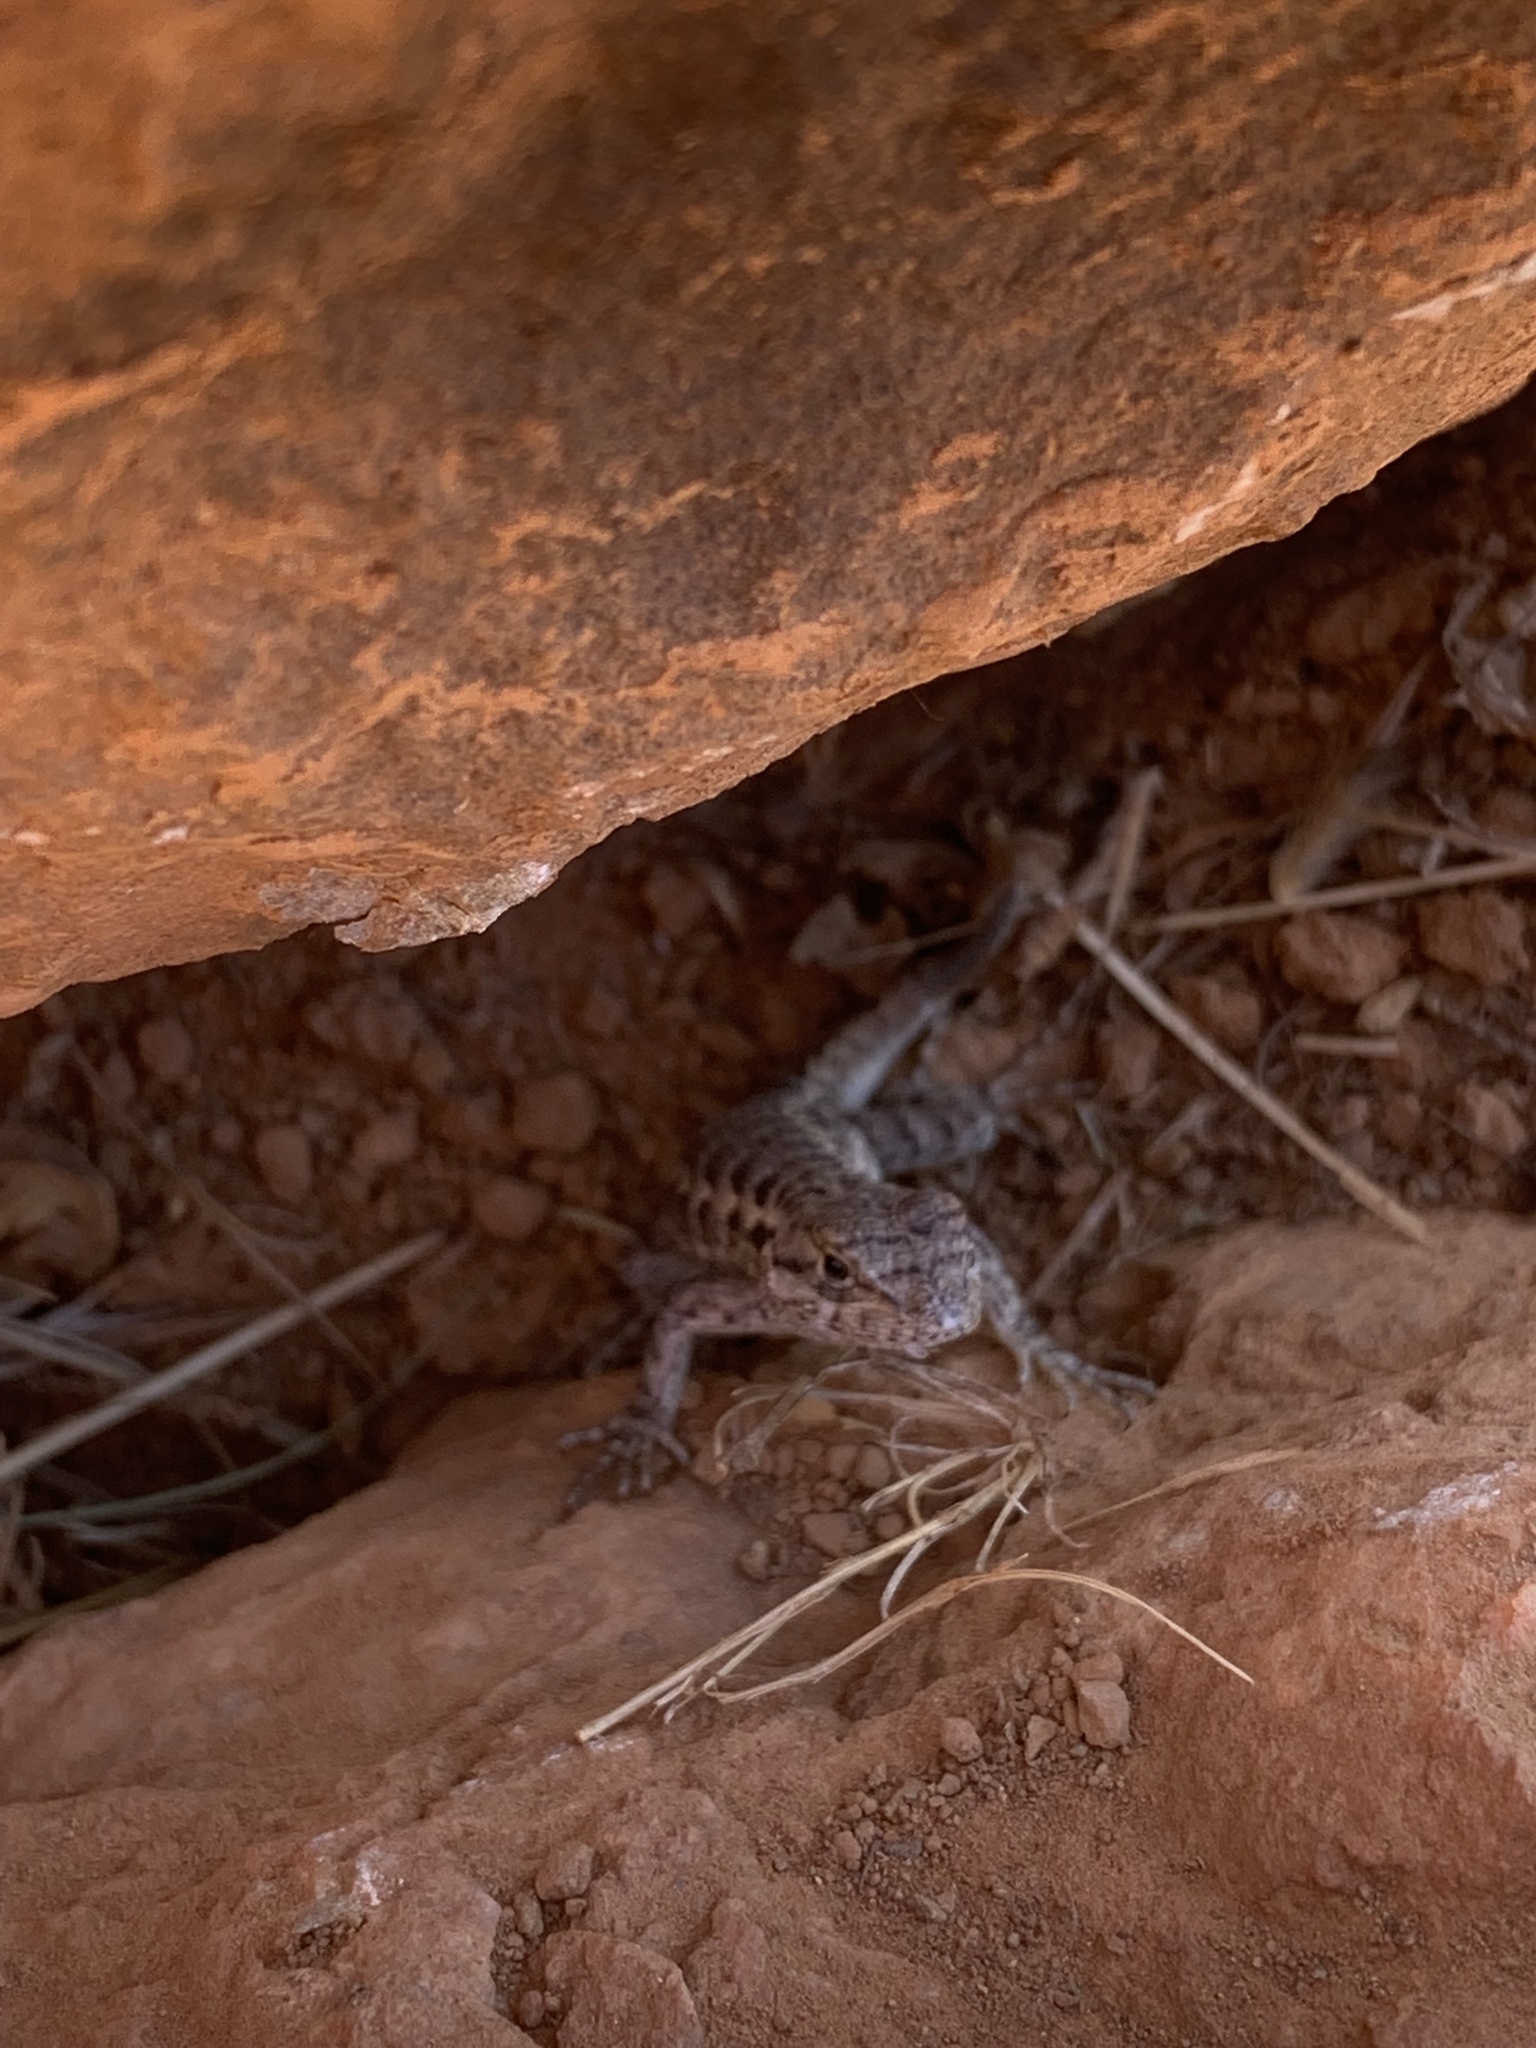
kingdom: Animalia
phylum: Chordata
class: Squamata
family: Phrynosomatidae
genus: Sceloporus
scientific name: Sceloporus occidentalis
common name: Western fence lizard
